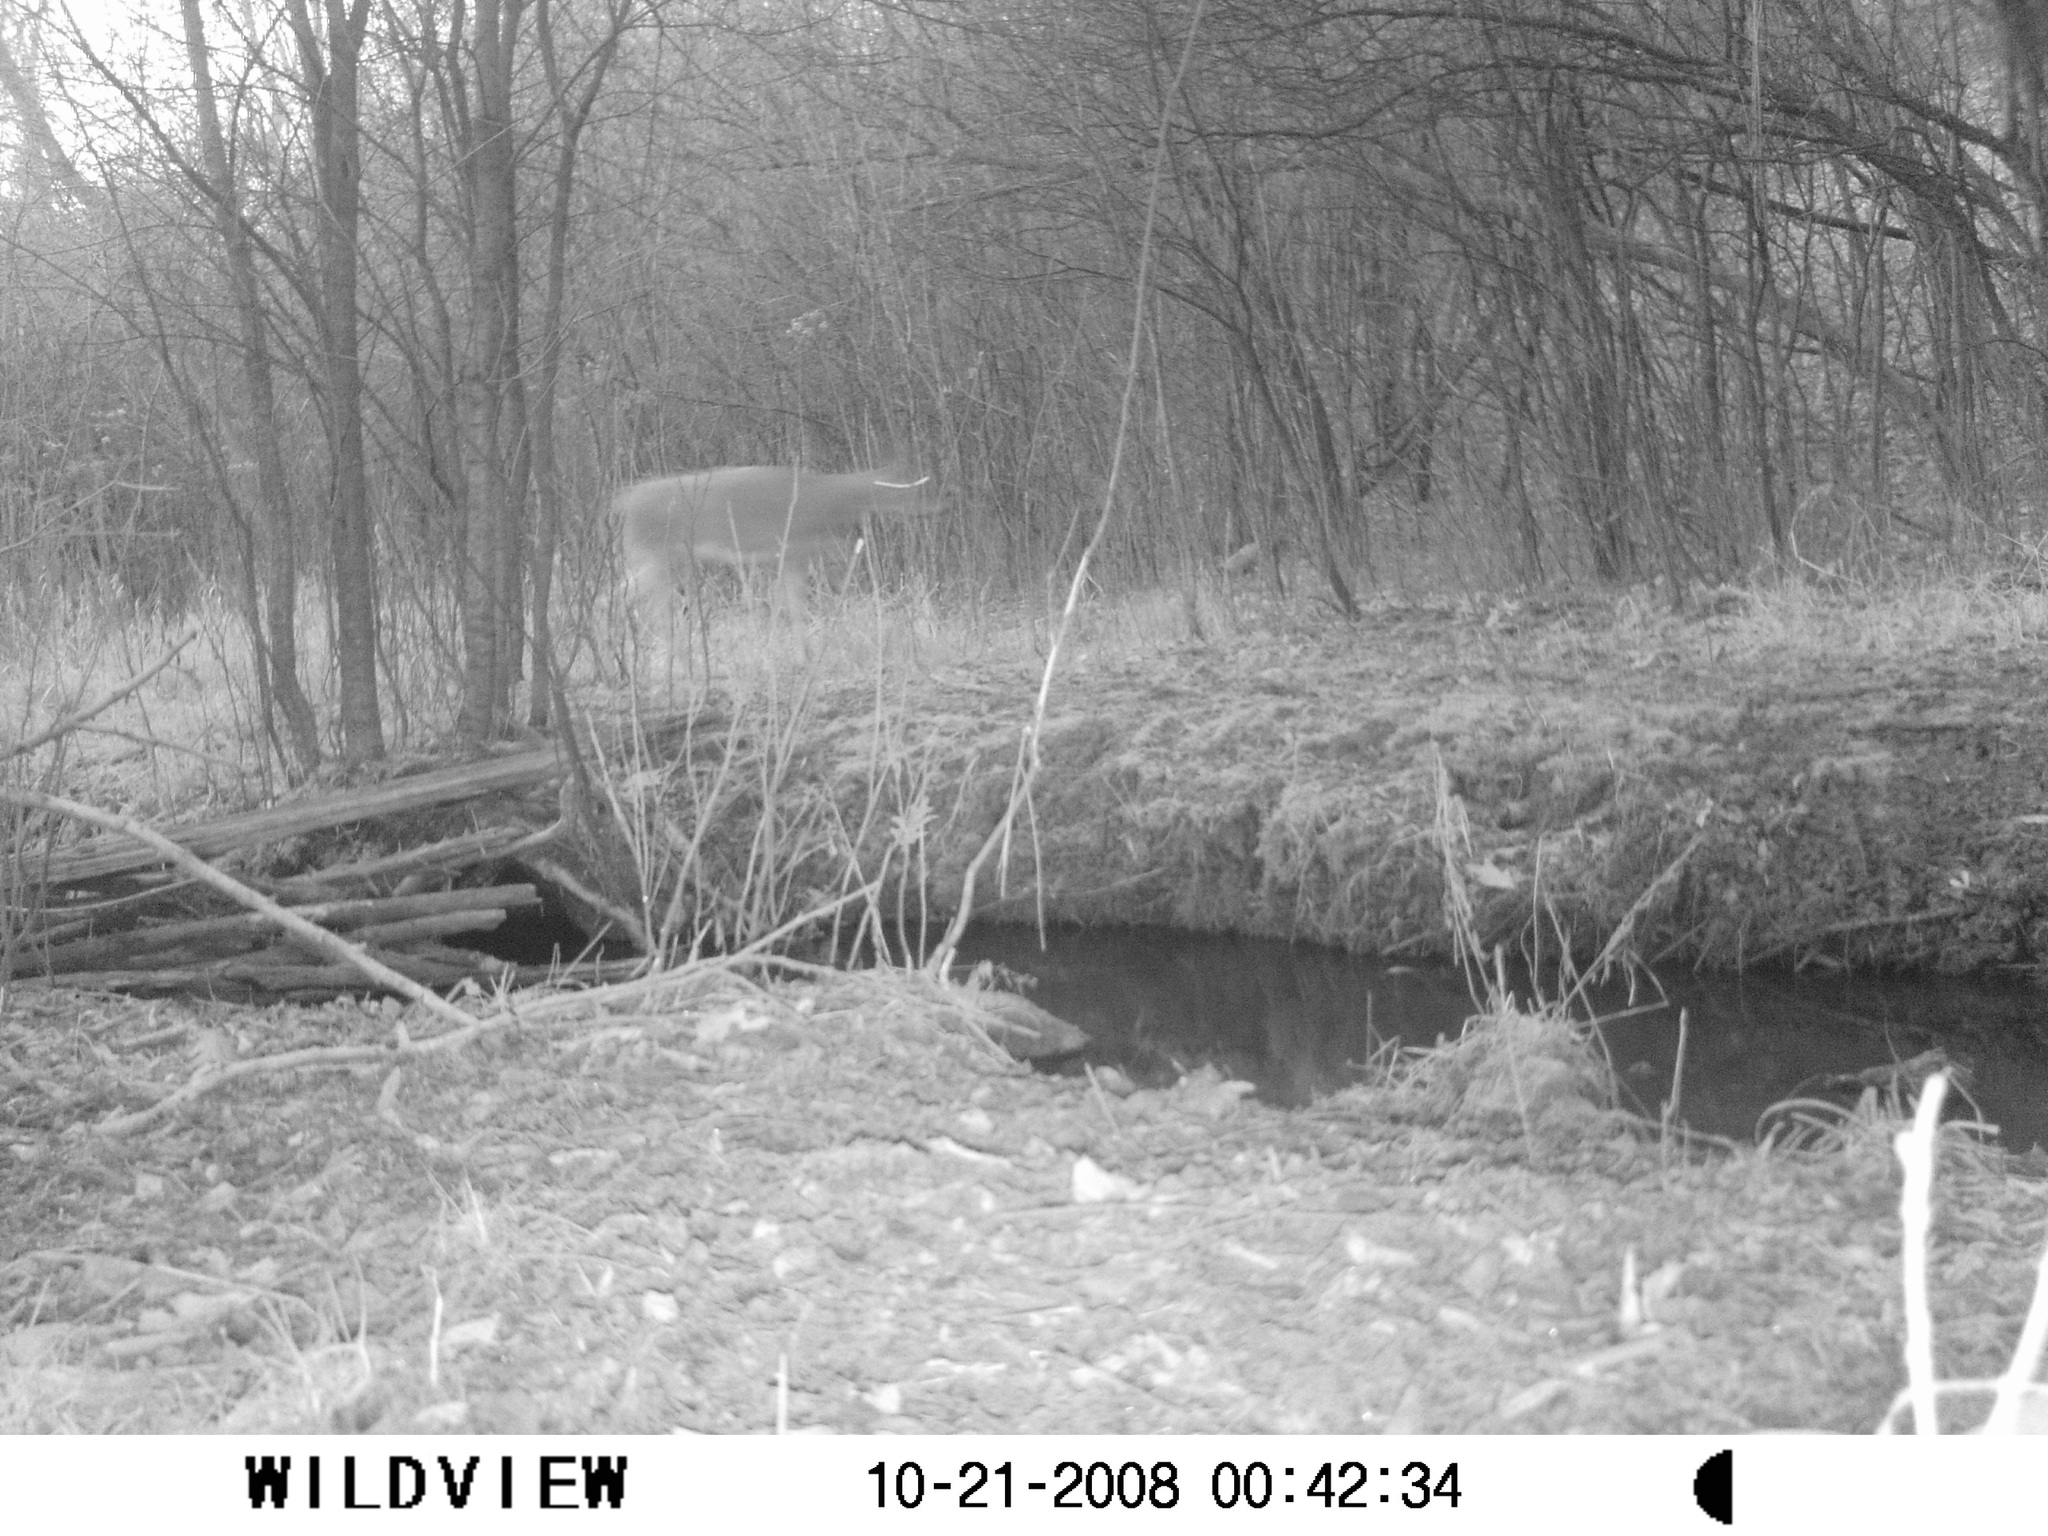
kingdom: Animalia
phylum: Chordata
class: Mammalia
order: Artiodactyla
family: Cervidae
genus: Odocoileus
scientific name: Odocoileus virginianus
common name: White-tailed deer
